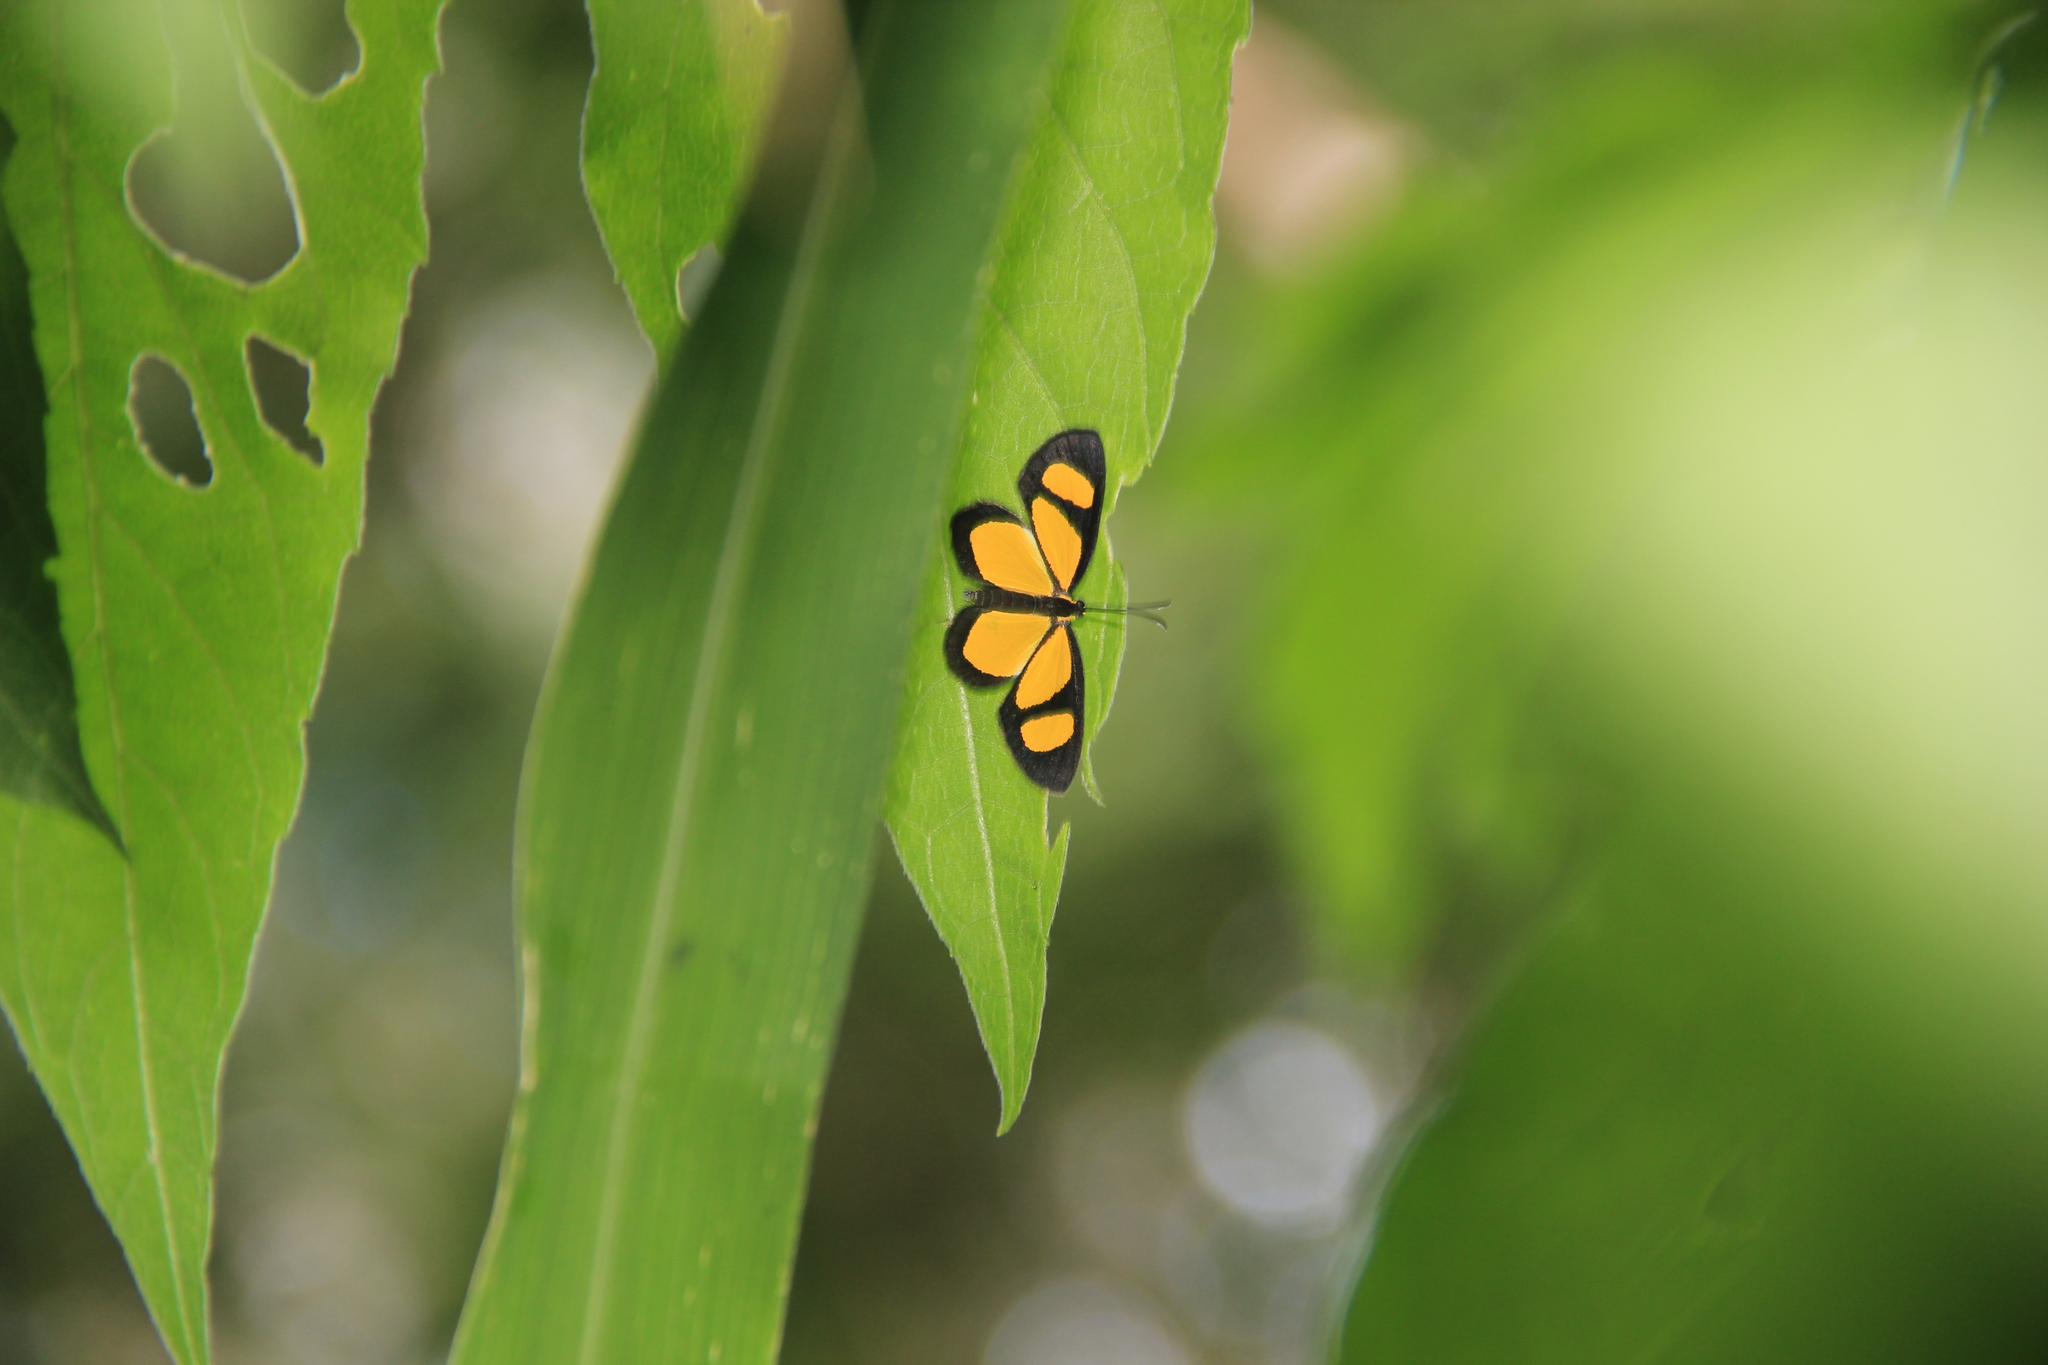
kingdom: Animalia
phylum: Arthropoda
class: Insecta
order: Lepidoptera
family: Riodinidae
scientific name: Riodinidae
